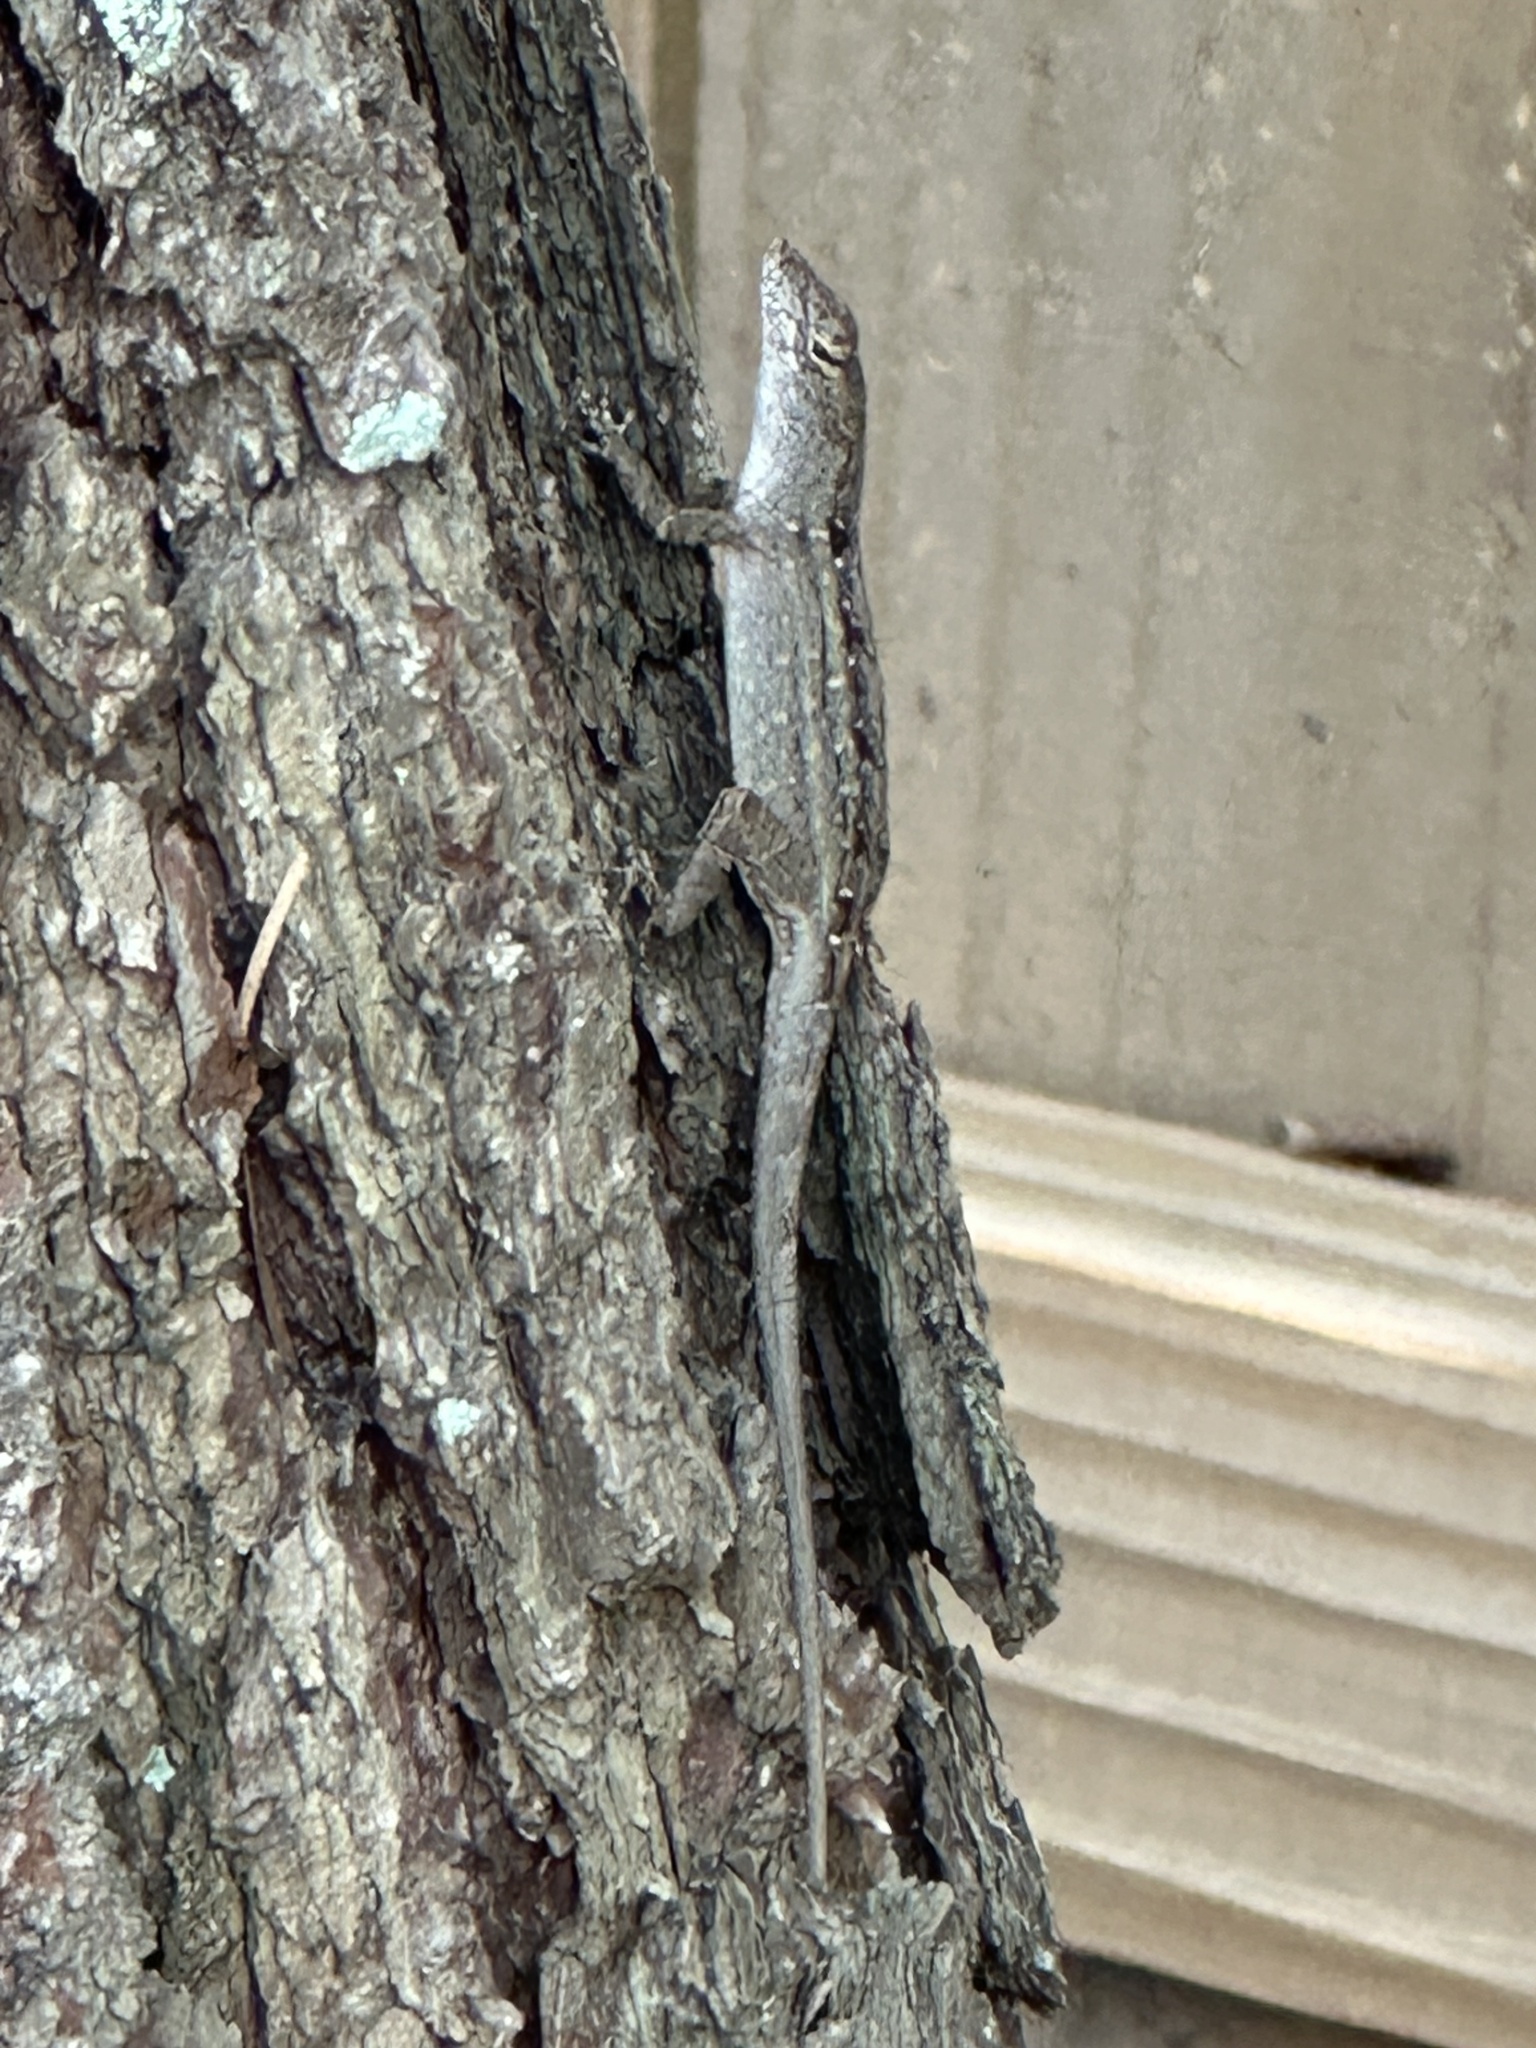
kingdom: Animalia
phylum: Chordata
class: Squamata
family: Dactyloidae
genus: Anolis
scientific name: Anolis sagrei
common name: Brown anole
